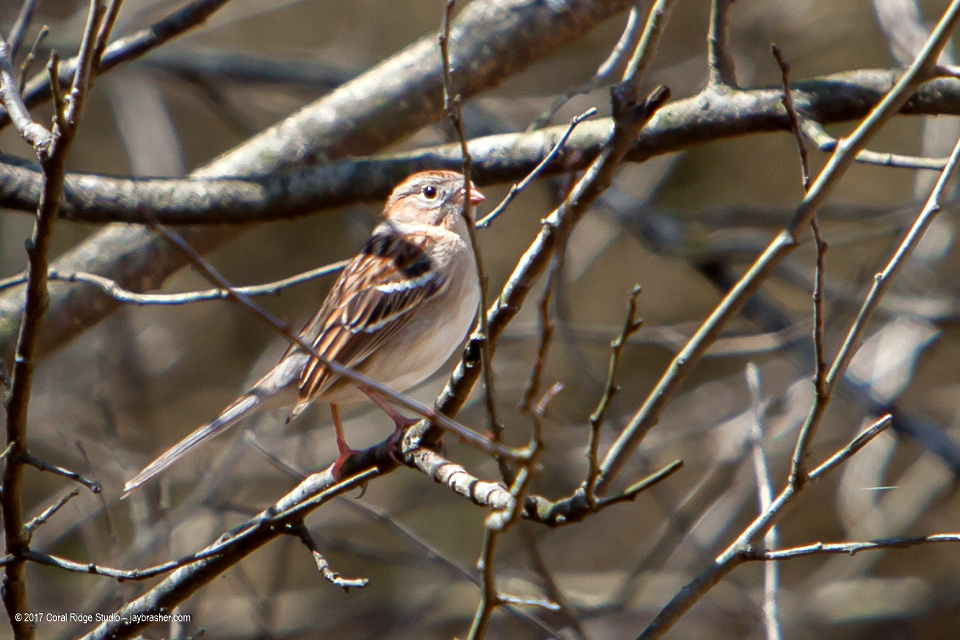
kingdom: Animalia
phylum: Chordata
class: Aves
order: Passeriformes
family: Passerellidae
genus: Spizella
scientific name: Spizella pusilla
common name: Field sparrow
